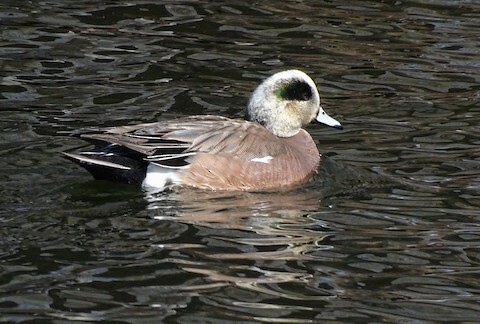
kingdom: Animalia
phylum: Chordata
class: Aves
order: Anseriformes
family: Anatidae
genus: Mareca
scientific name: Mareca americana
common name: American wigeon
